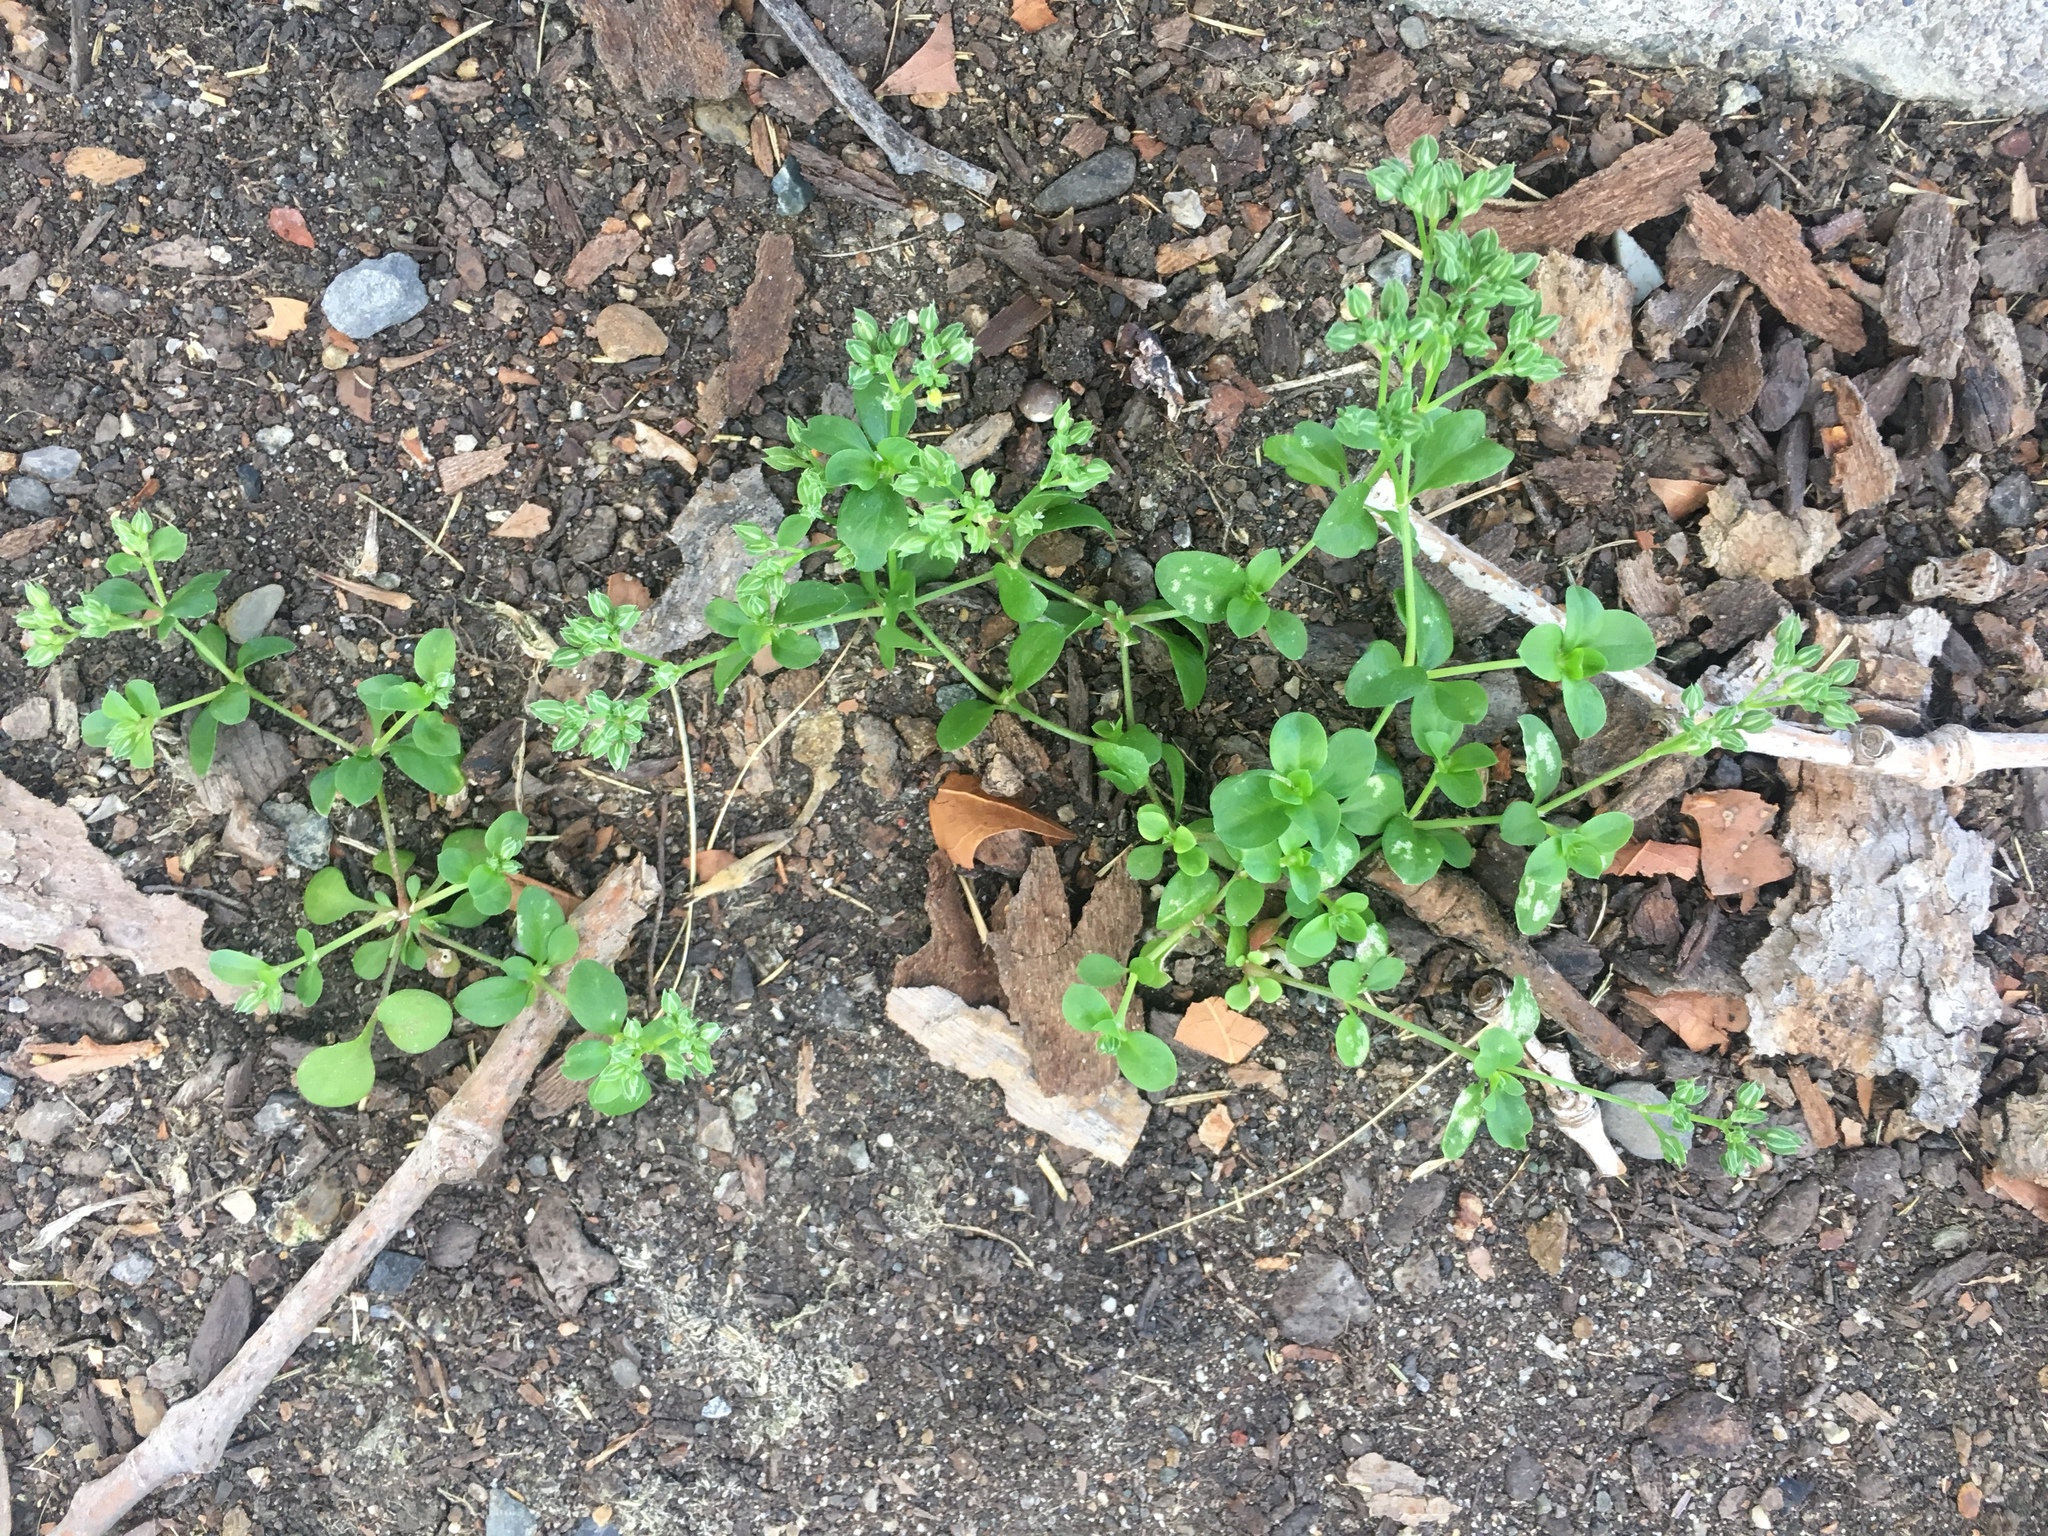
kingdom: Plantae
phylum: Tracheophyta
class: Magnoliopsida
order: Caryophyllales
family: Caryophyllaceae
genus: Polycarpon
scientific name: Polycarpon tetraphyllum
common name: Four-leaved all-seed
